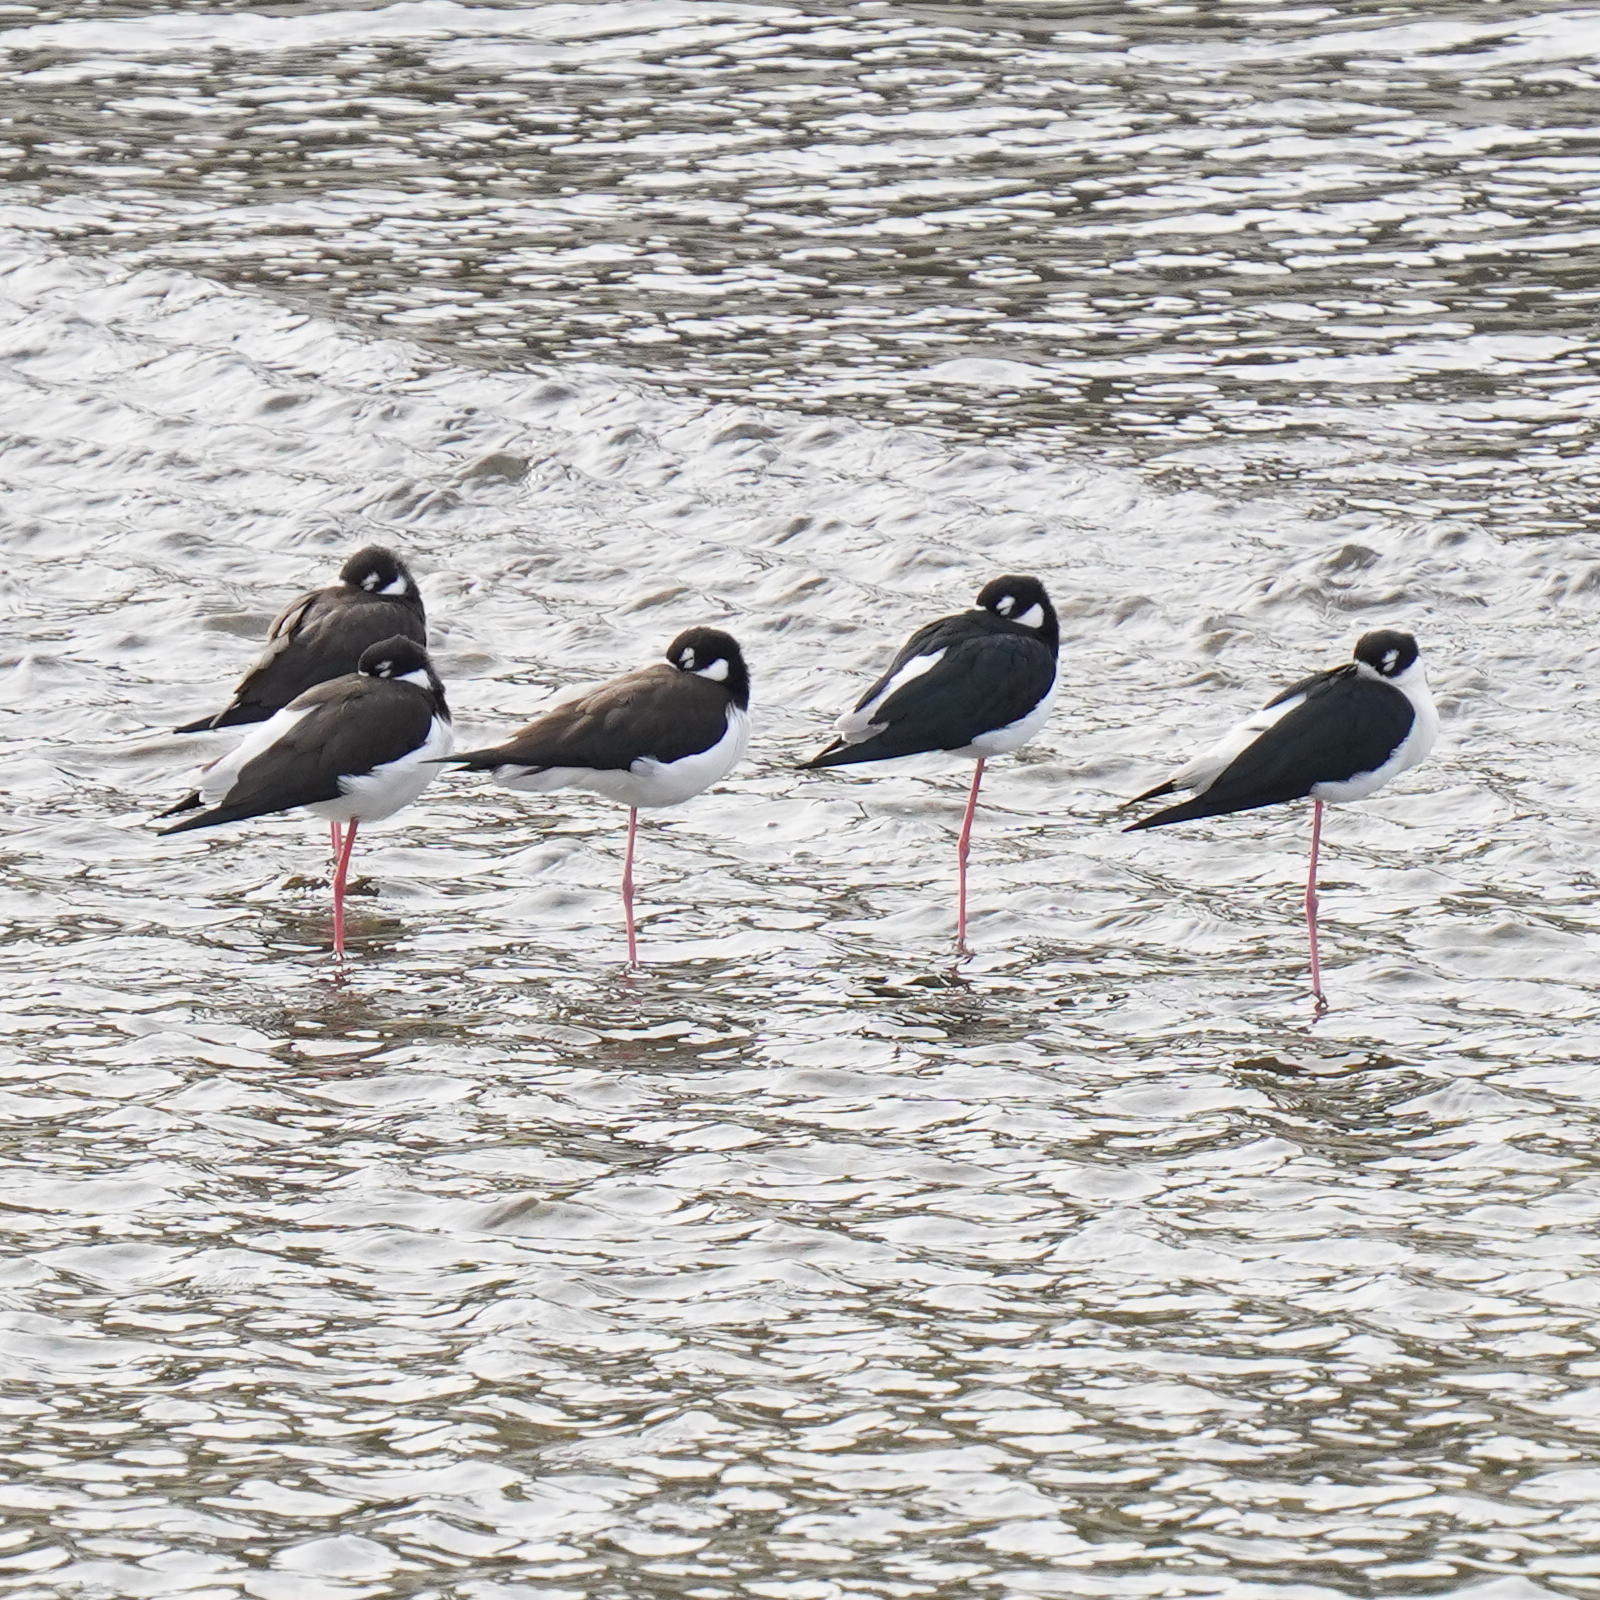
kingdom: Animalia
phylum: Chordata
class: Aves
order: Charadriiformes
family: Recurvirostridae
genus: Himantopus
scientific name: Himantopus mexicanus
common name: Black-necked stilt
